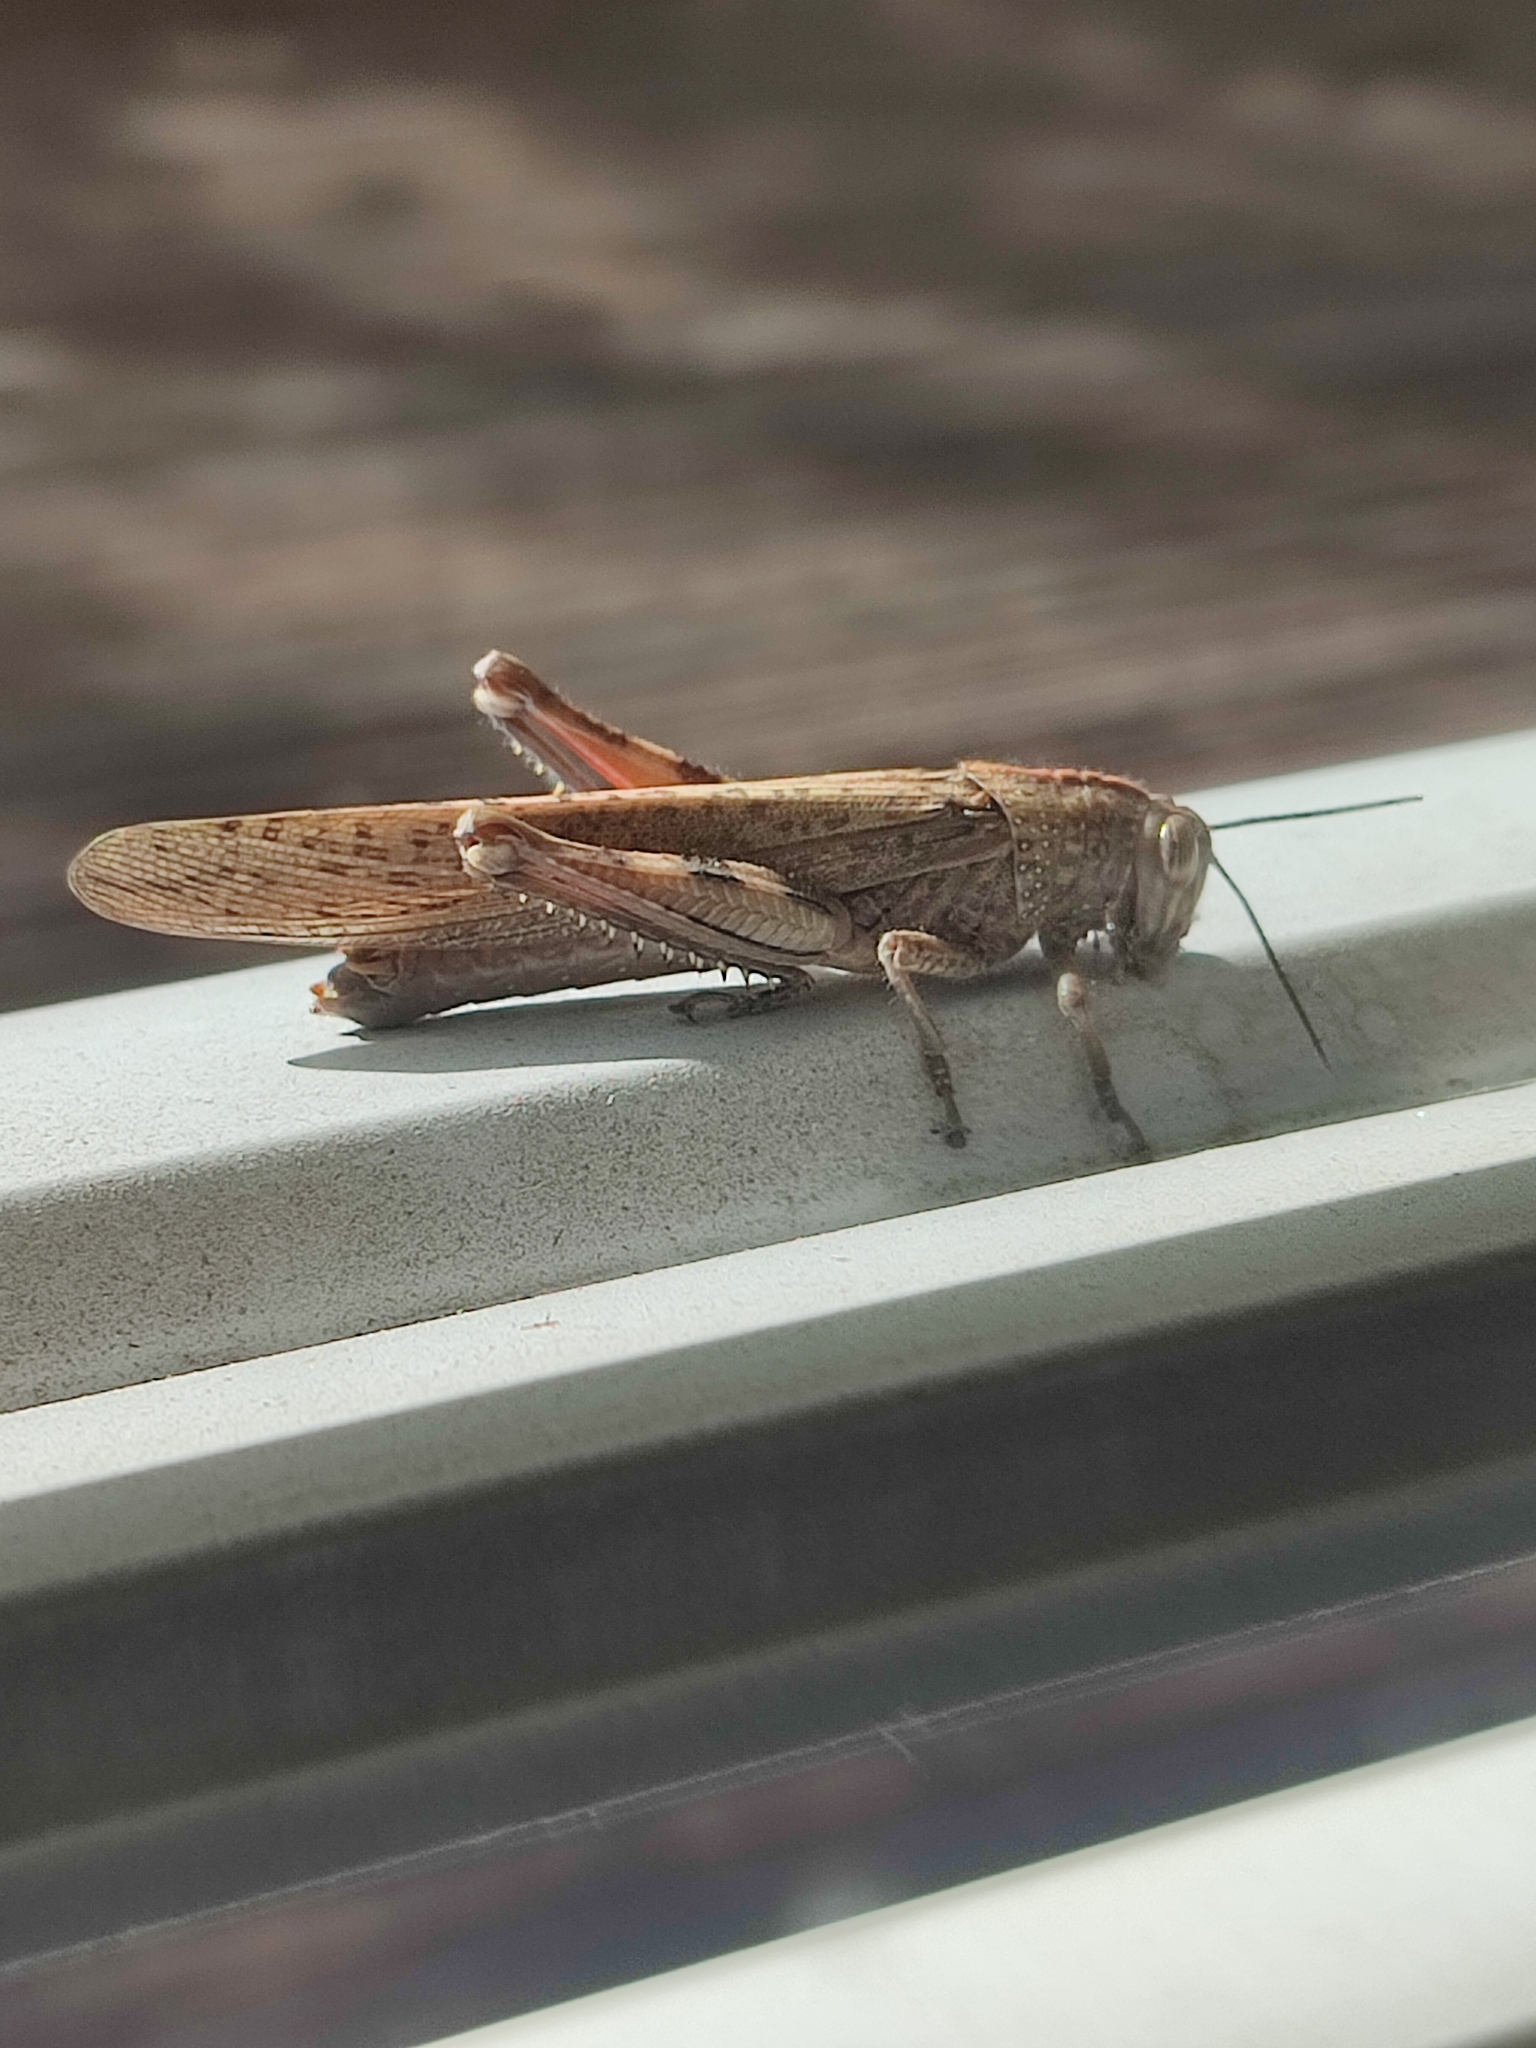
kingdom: Animalia
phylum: Arthropoda
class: Insecta
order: Orthoptera
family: Acrididae
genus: Anacridium
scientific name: Anacridium aegyptium
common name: Egyptian grasshopper
